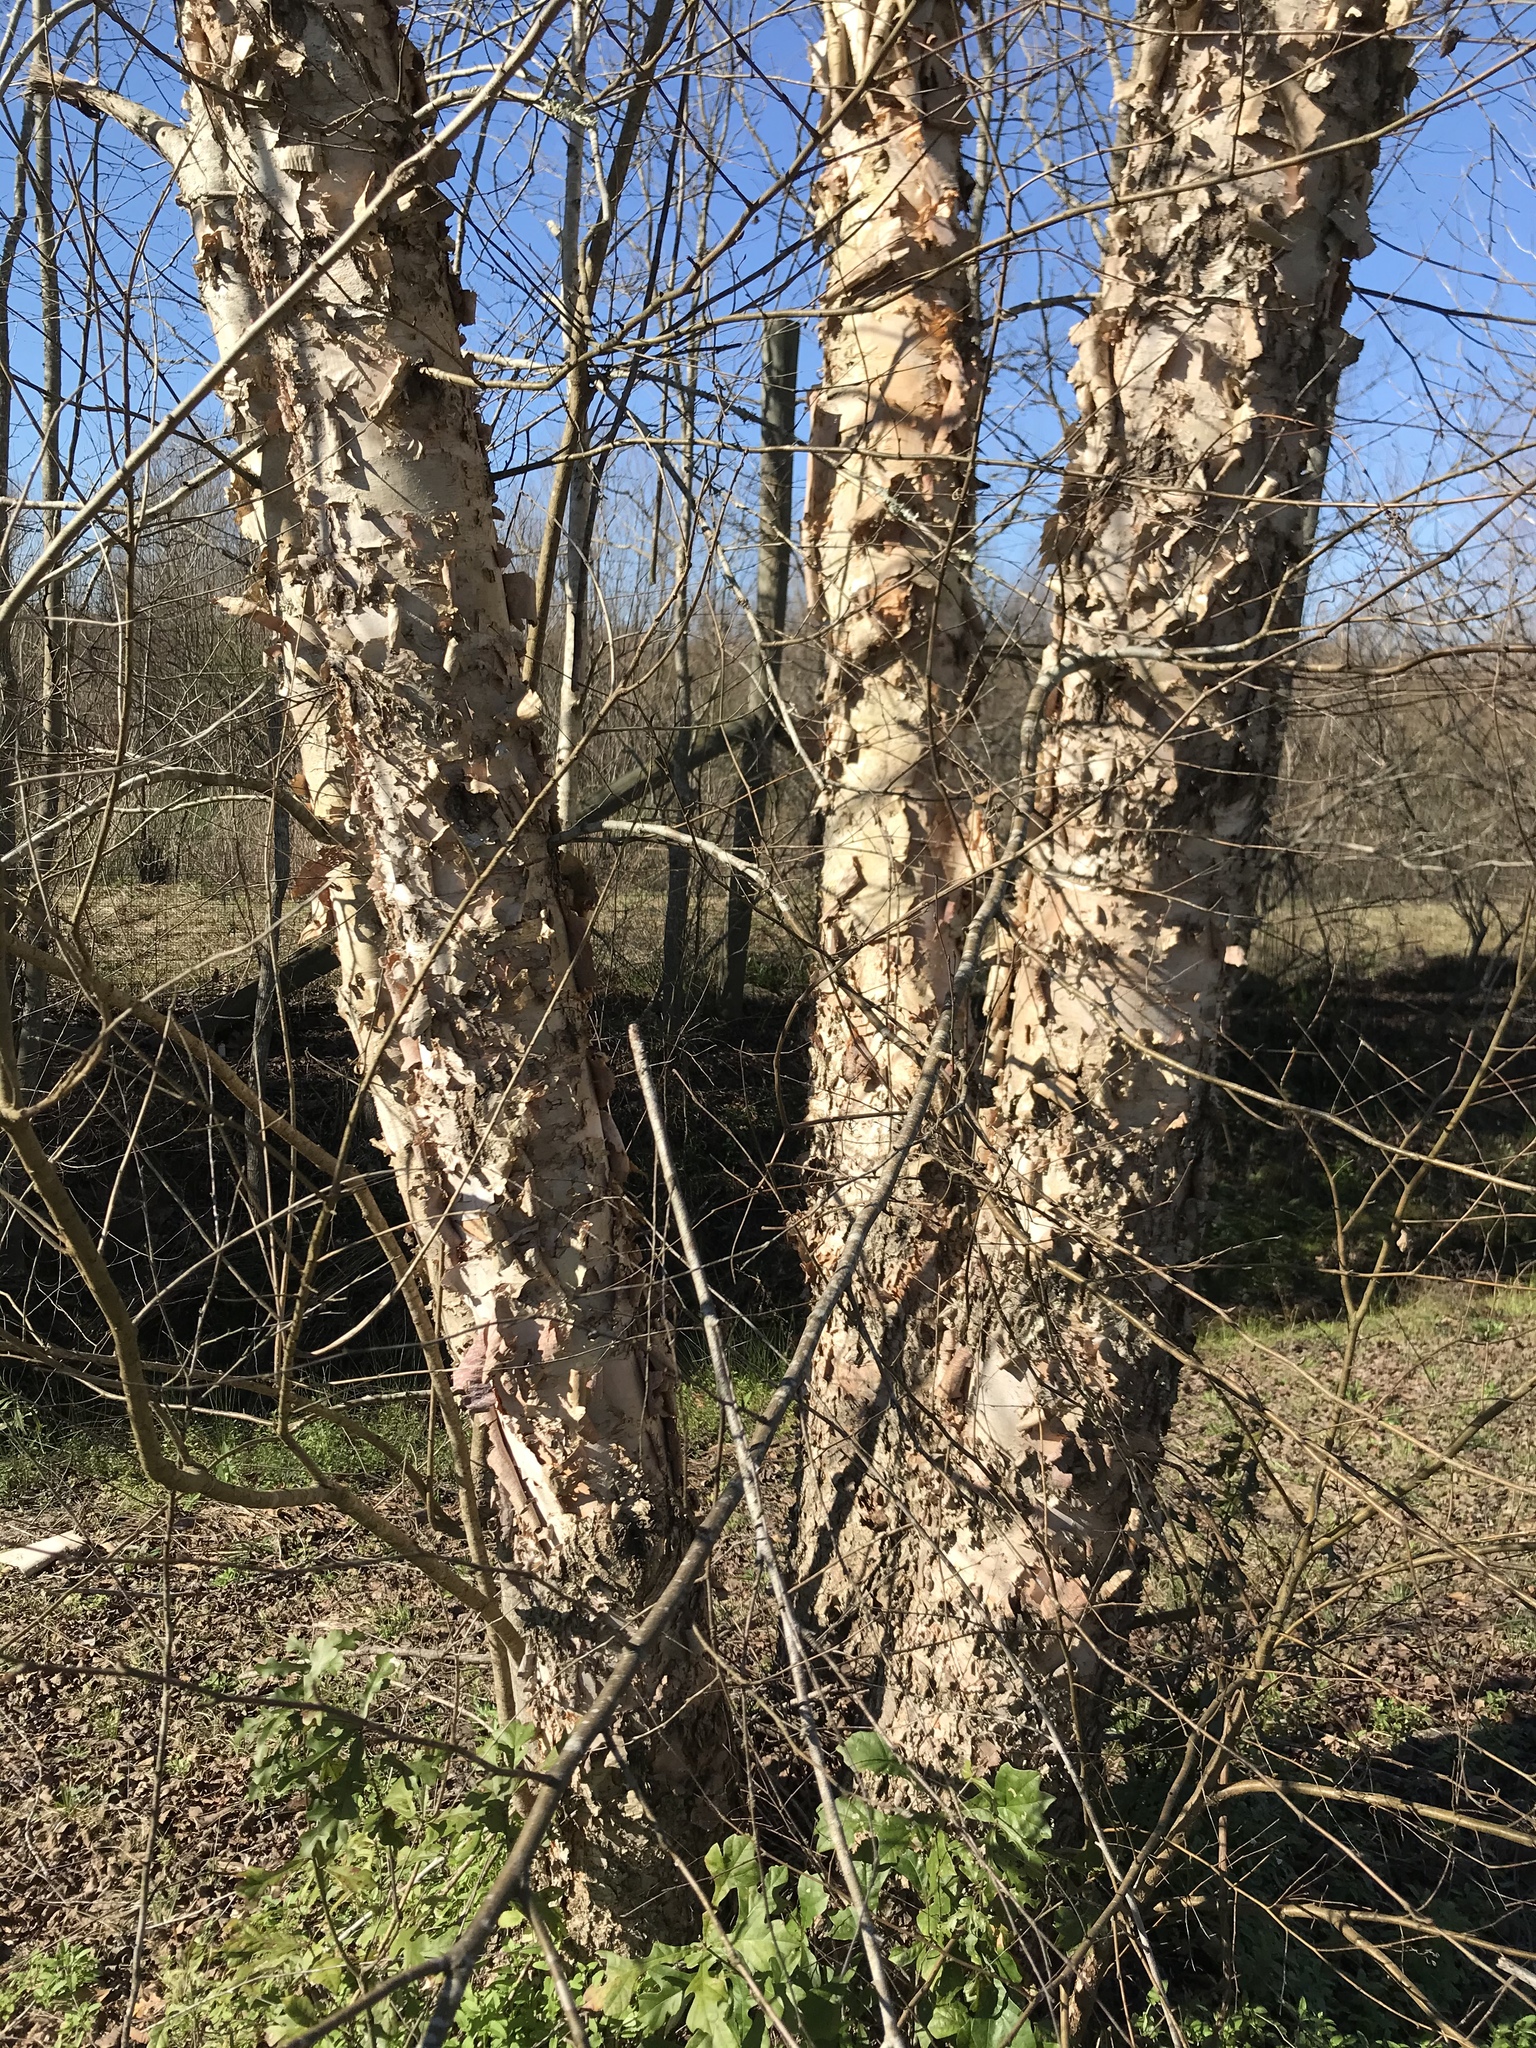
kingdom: Plantae
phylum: Tracheophyta
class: Magnoliopsida
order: Fagales
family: Betulaceae
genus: Betula
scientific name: Betula nigra
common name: Black birch
